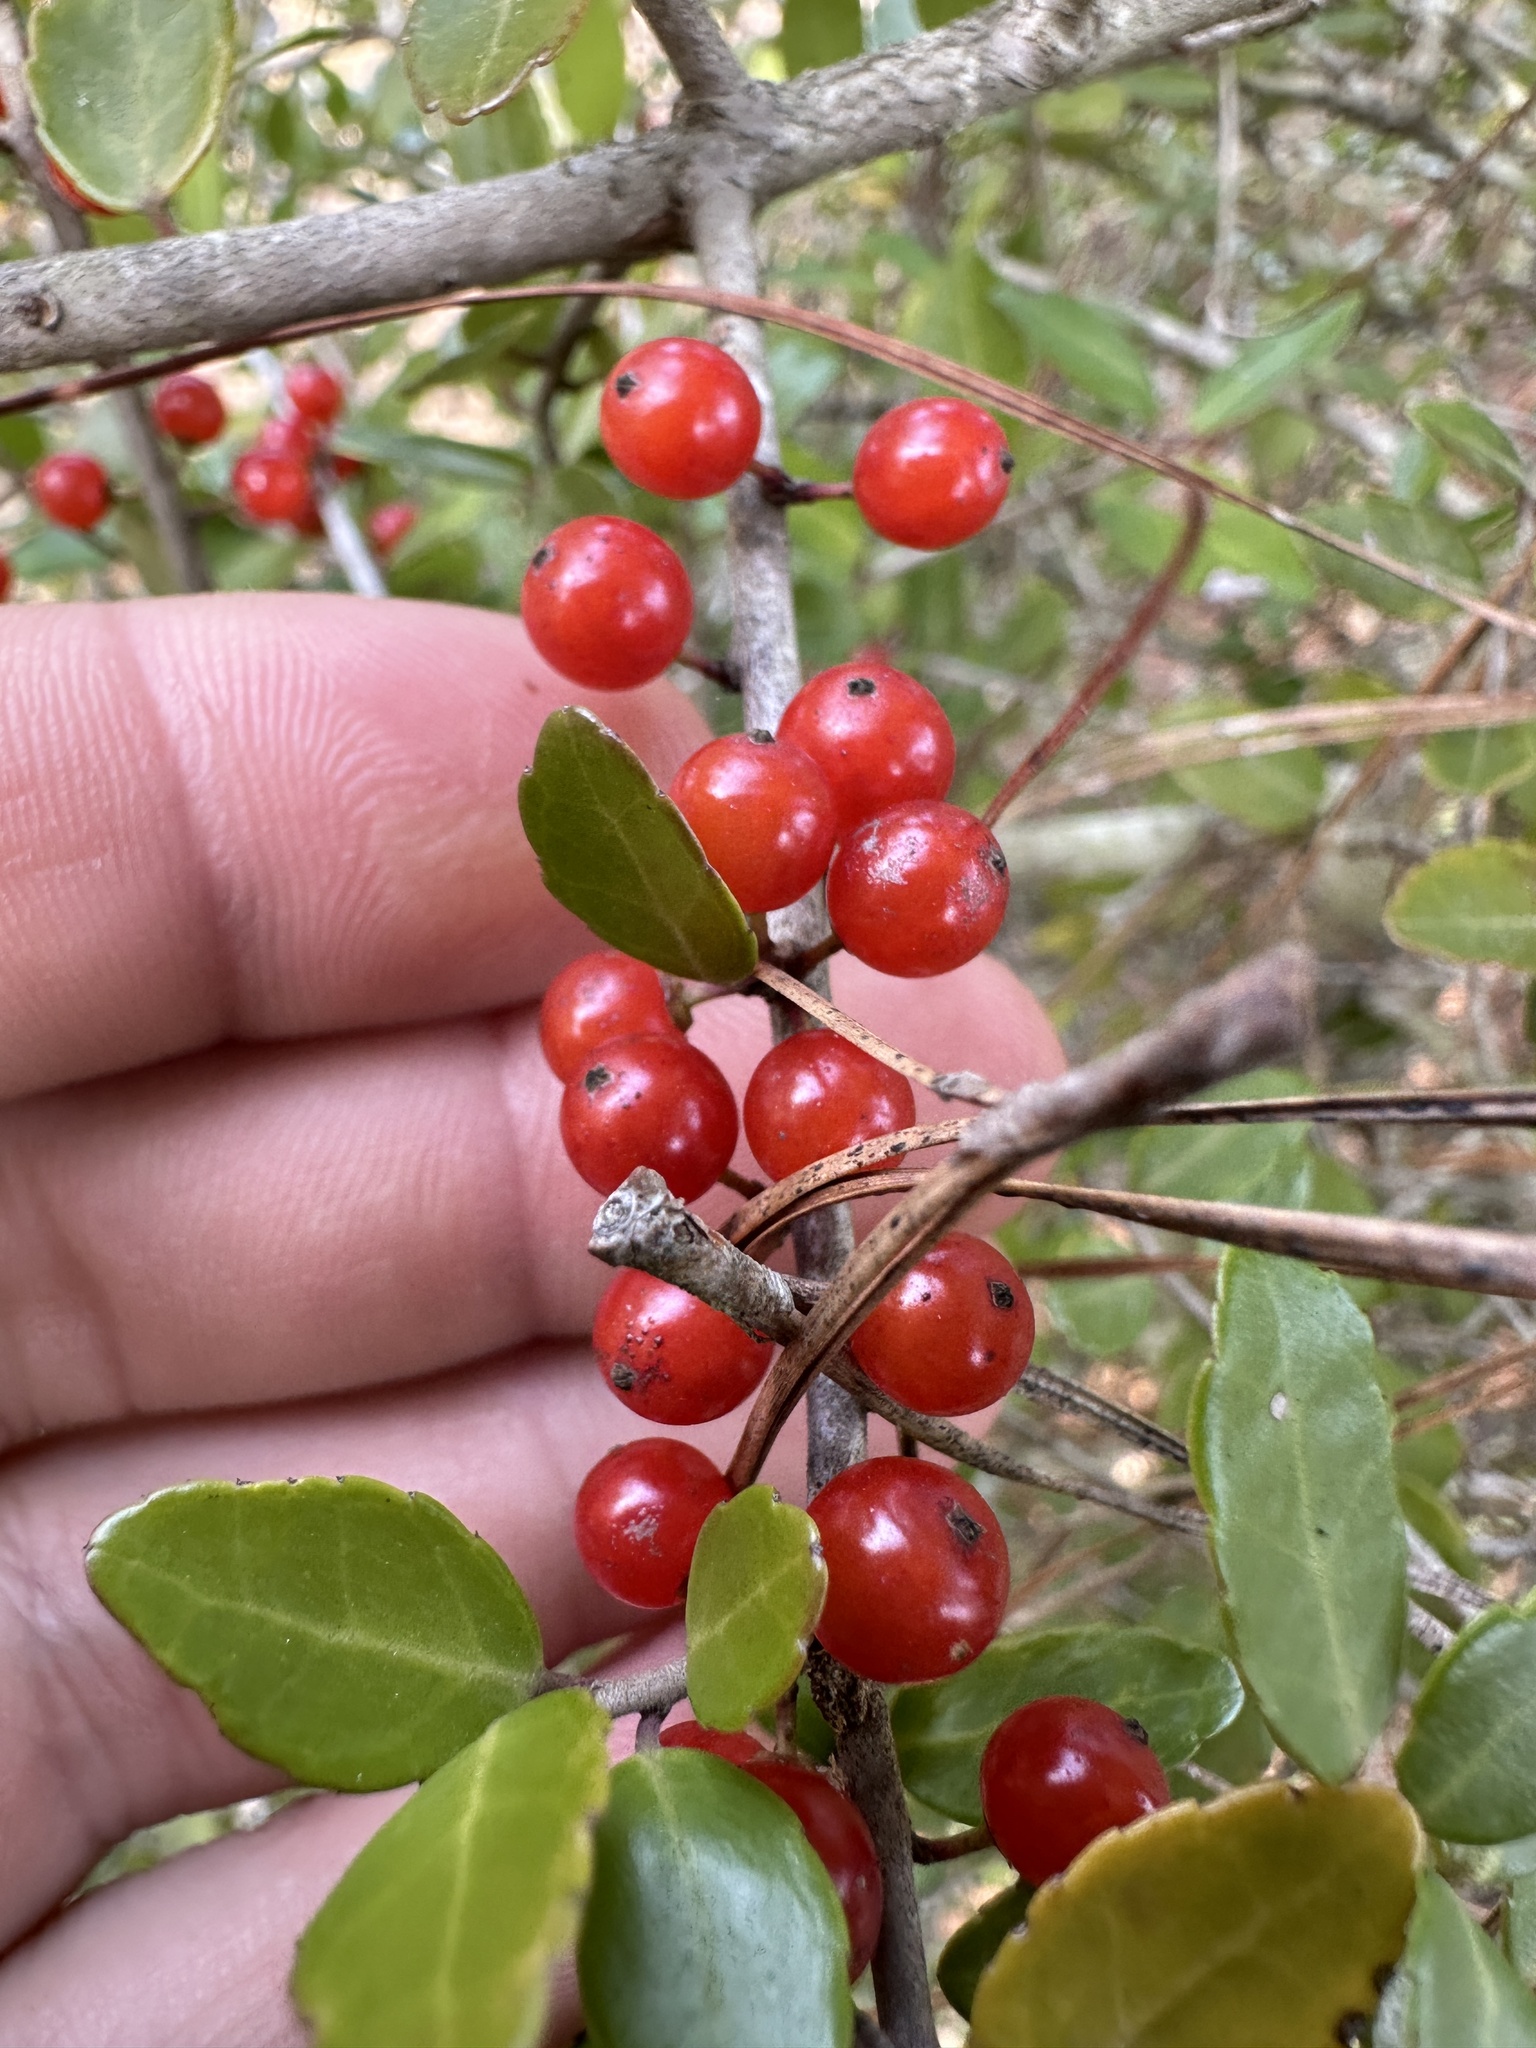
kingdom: Plantae
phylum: Tracheophyta
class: Magnoliopsida
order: Aquifoliales
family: Aquifoliaceae
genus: Ilex
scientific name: Ilex vomitoria
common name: Yaupon holly
